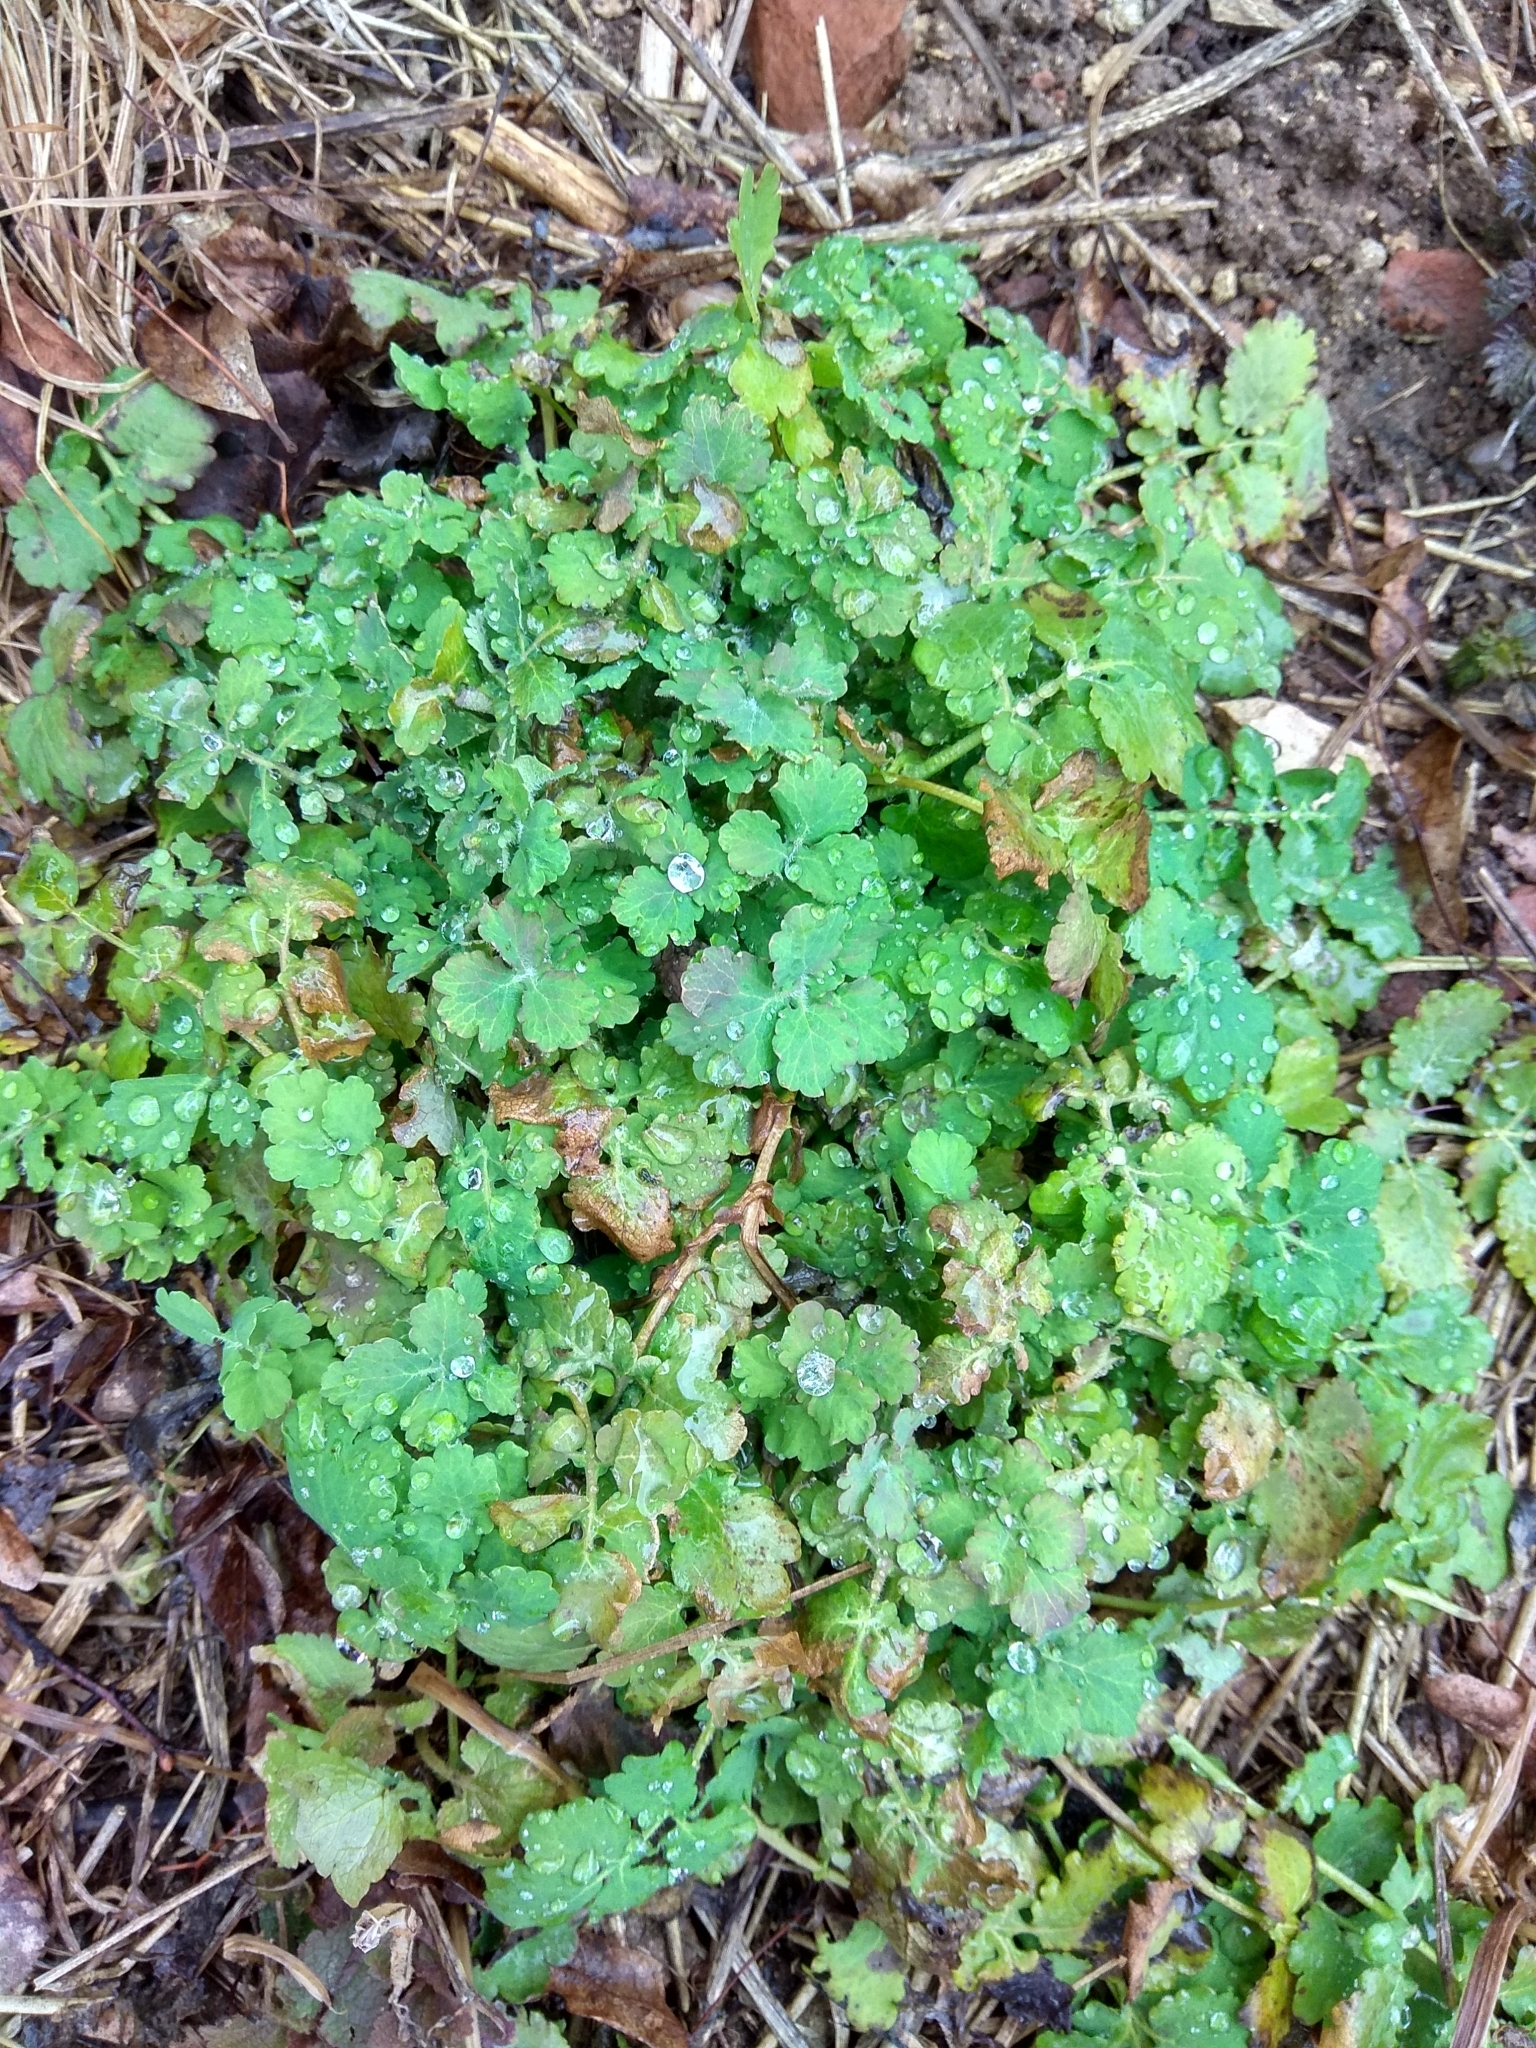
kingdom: Plantae
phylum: Tracheophyta
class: Magnoliopsida
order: Ranunculales
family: Papaveraceae
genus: Chelidonium
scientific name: Chelidonium majus
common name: Greater celandine
